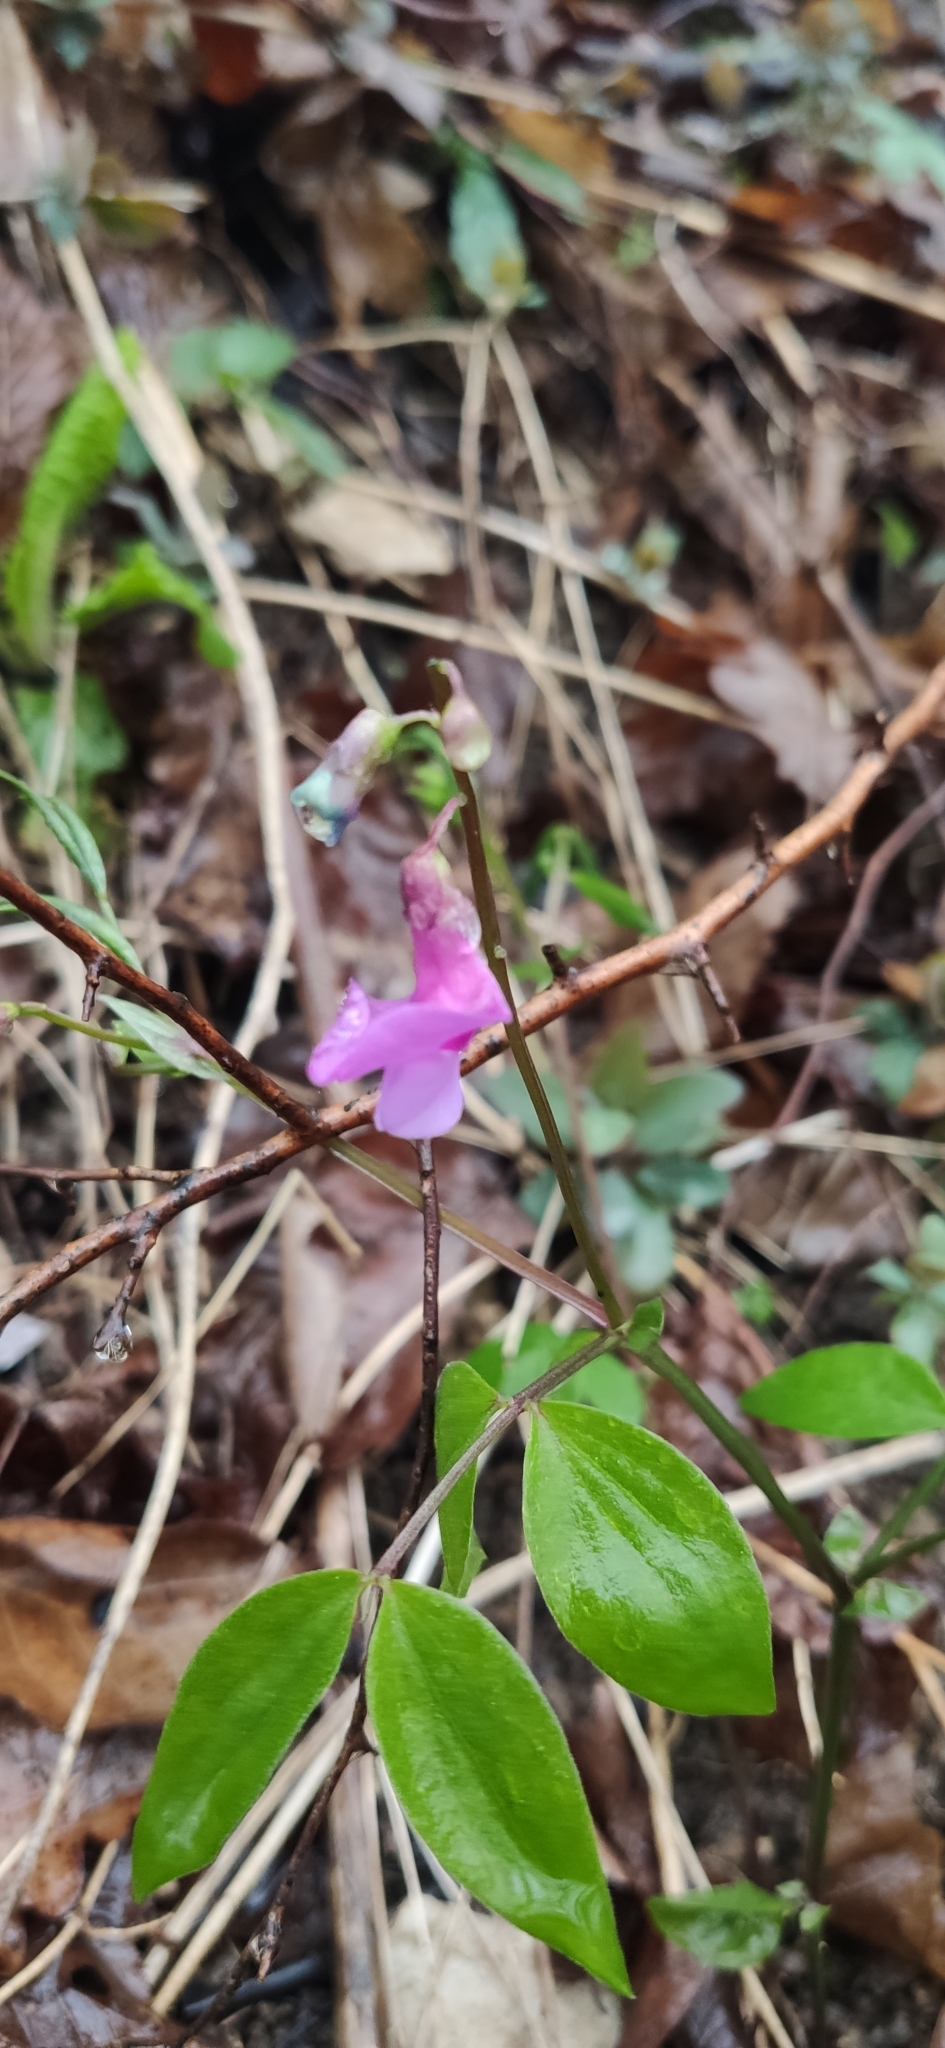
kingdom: Plantae
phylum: Tracheophyta
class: Magnoliopsida
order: Fabales
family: Fabaceae
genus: Lathyrus
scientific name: Lathyrus vernus
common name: Spring pea
